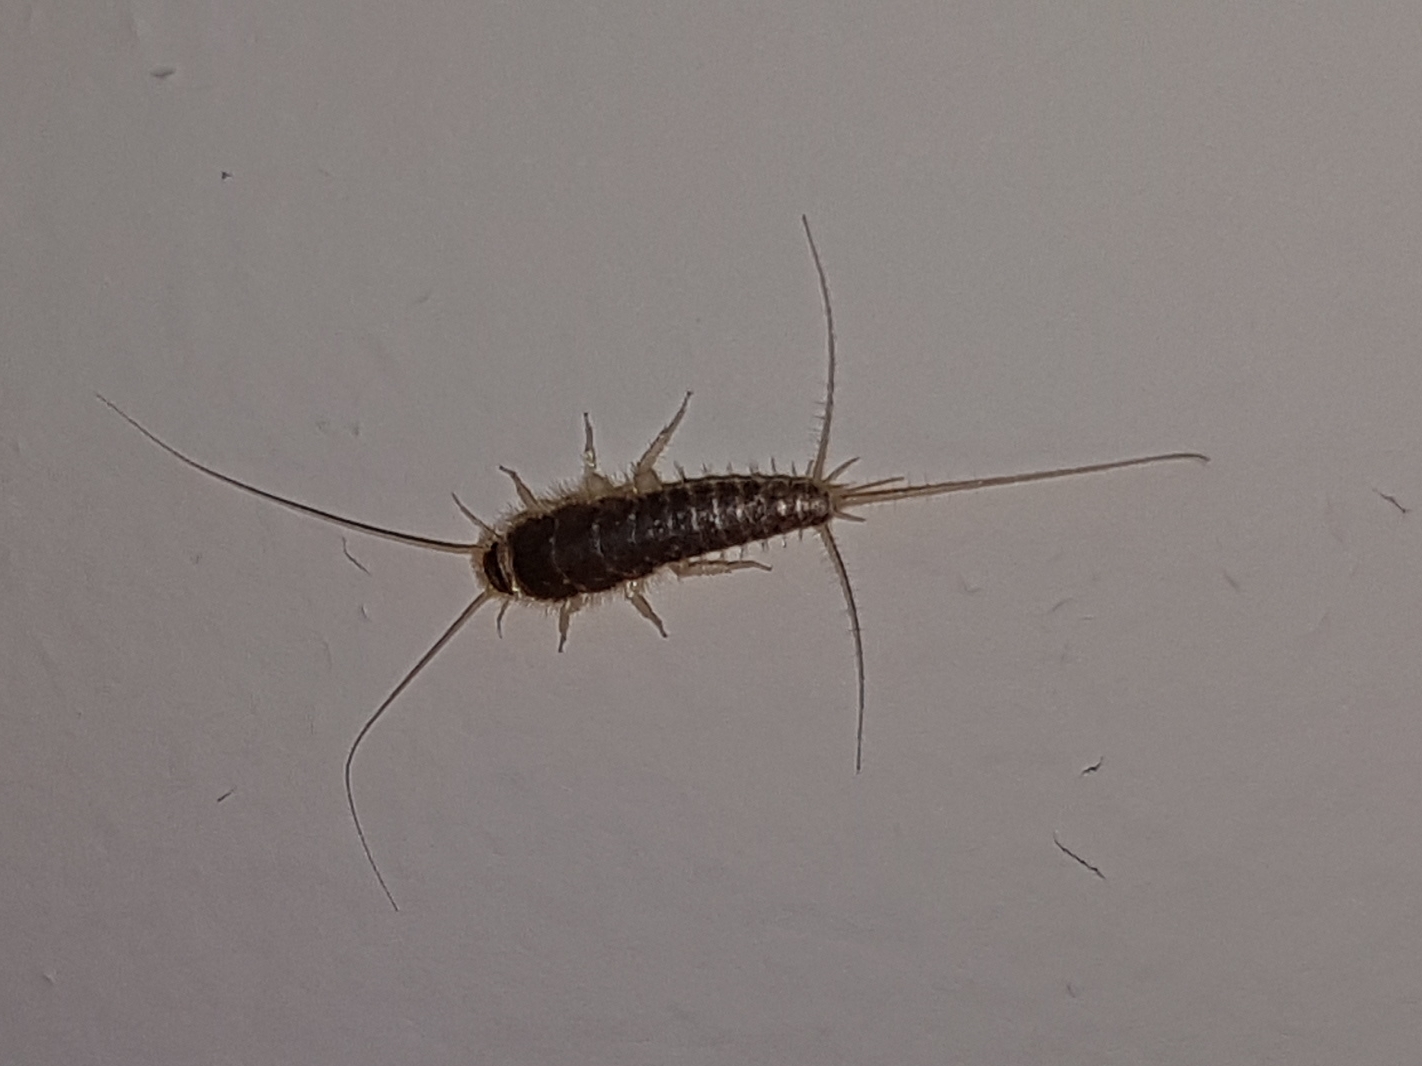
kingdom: Animalia
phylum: Arthropoda
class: Insecta
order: Zygentoma
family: Lepismatidae
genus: Ctenolepisma
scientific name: Ctenolepisma longicaudatum
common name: Silverfish
